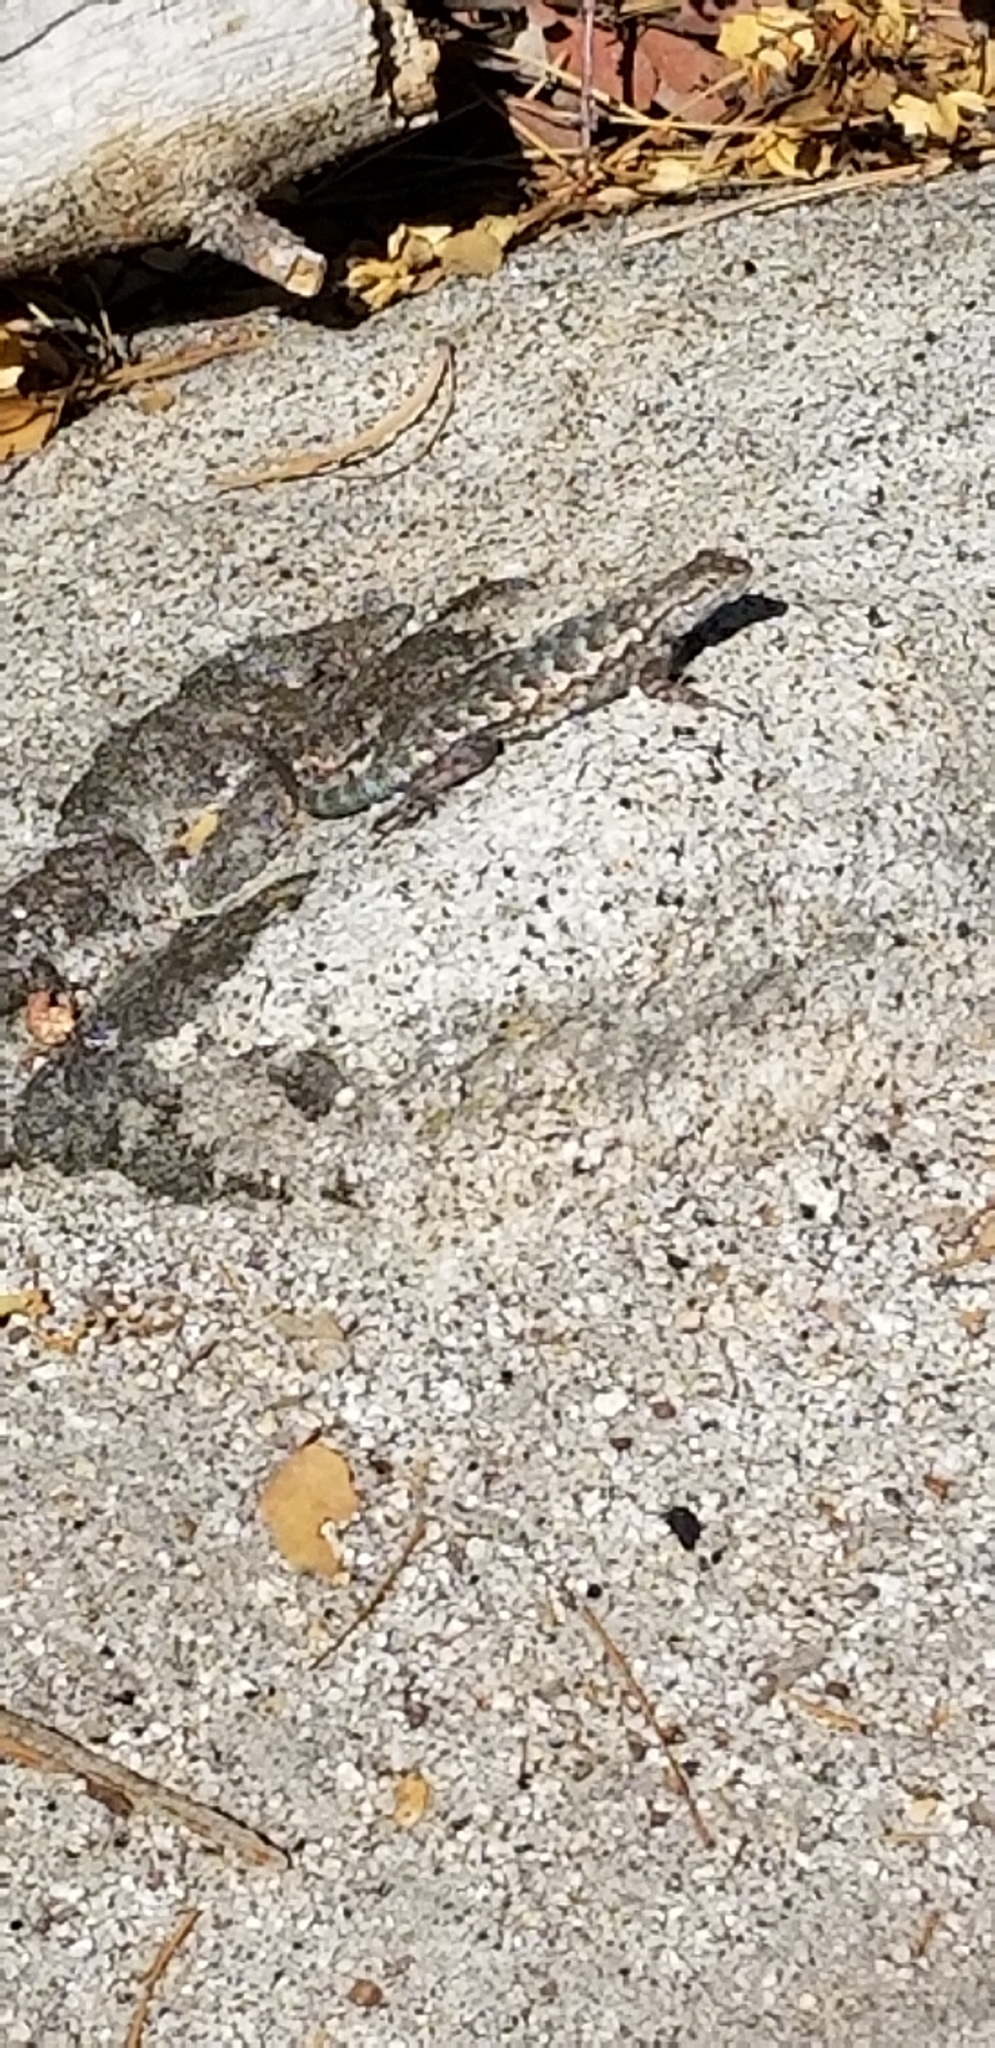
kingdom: Animalia
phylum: Chordata
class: Squamata
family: Phrynosomatidae
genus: Sceloporus
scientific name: Sceloporus occidentalis
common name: Western fence lizard
